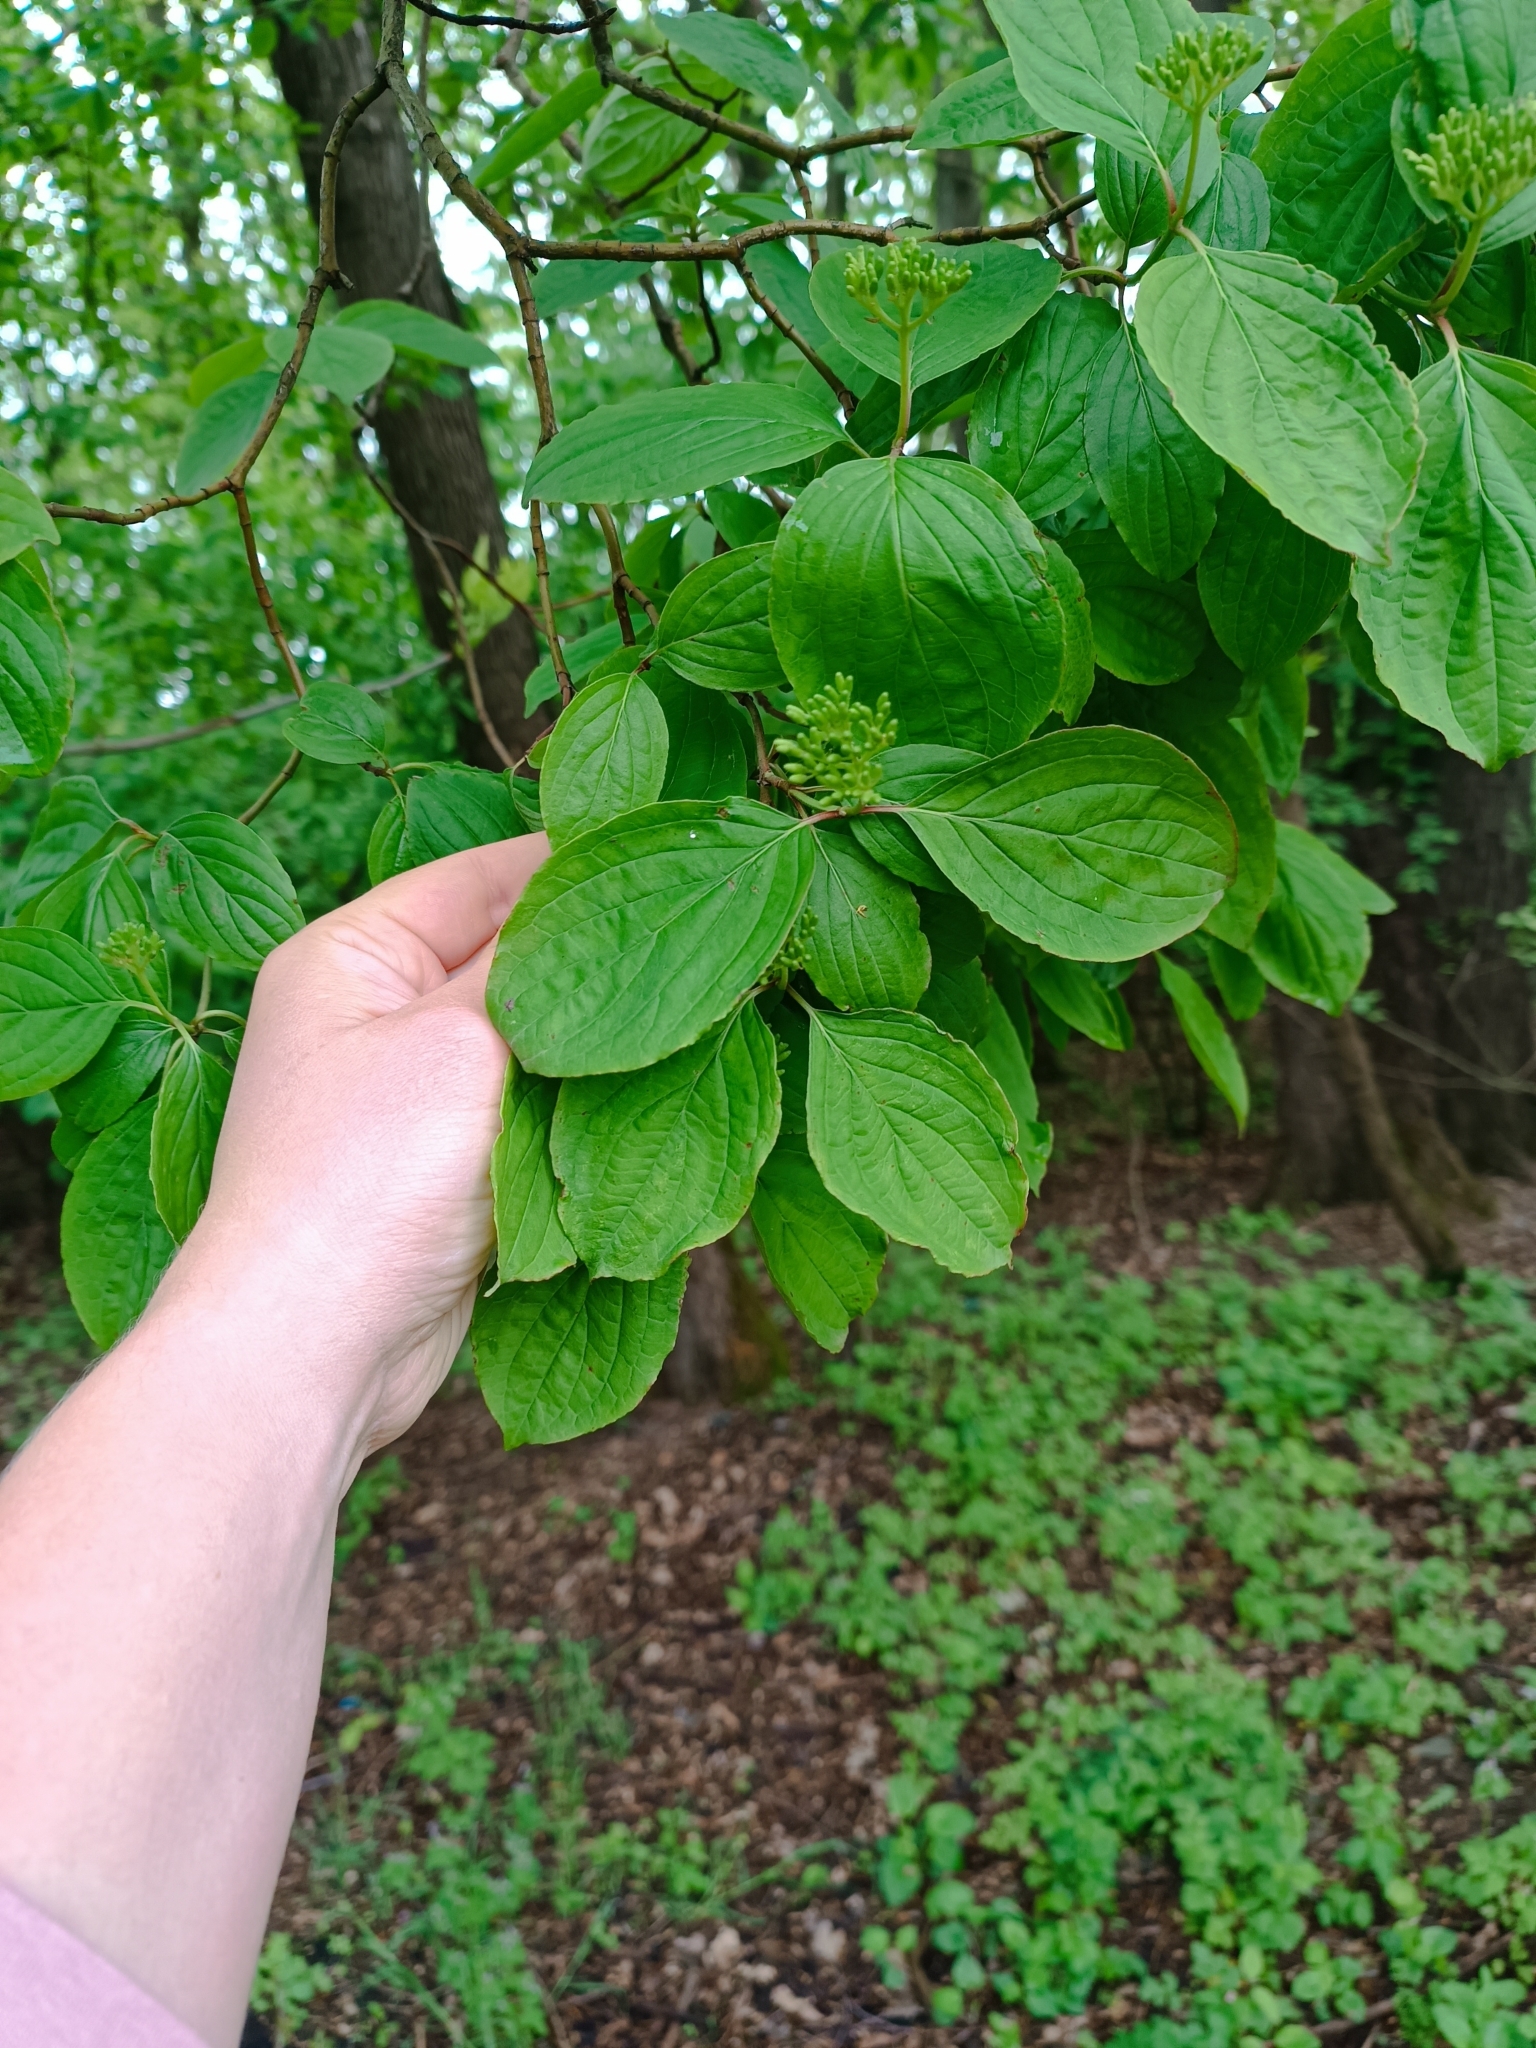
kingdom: Plantae
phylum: Tracheophyta
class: Magnoliopsida
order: Cornales
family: Cornaceae
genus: Cornus
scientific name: Cornus sanguinea
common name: Dogwood
